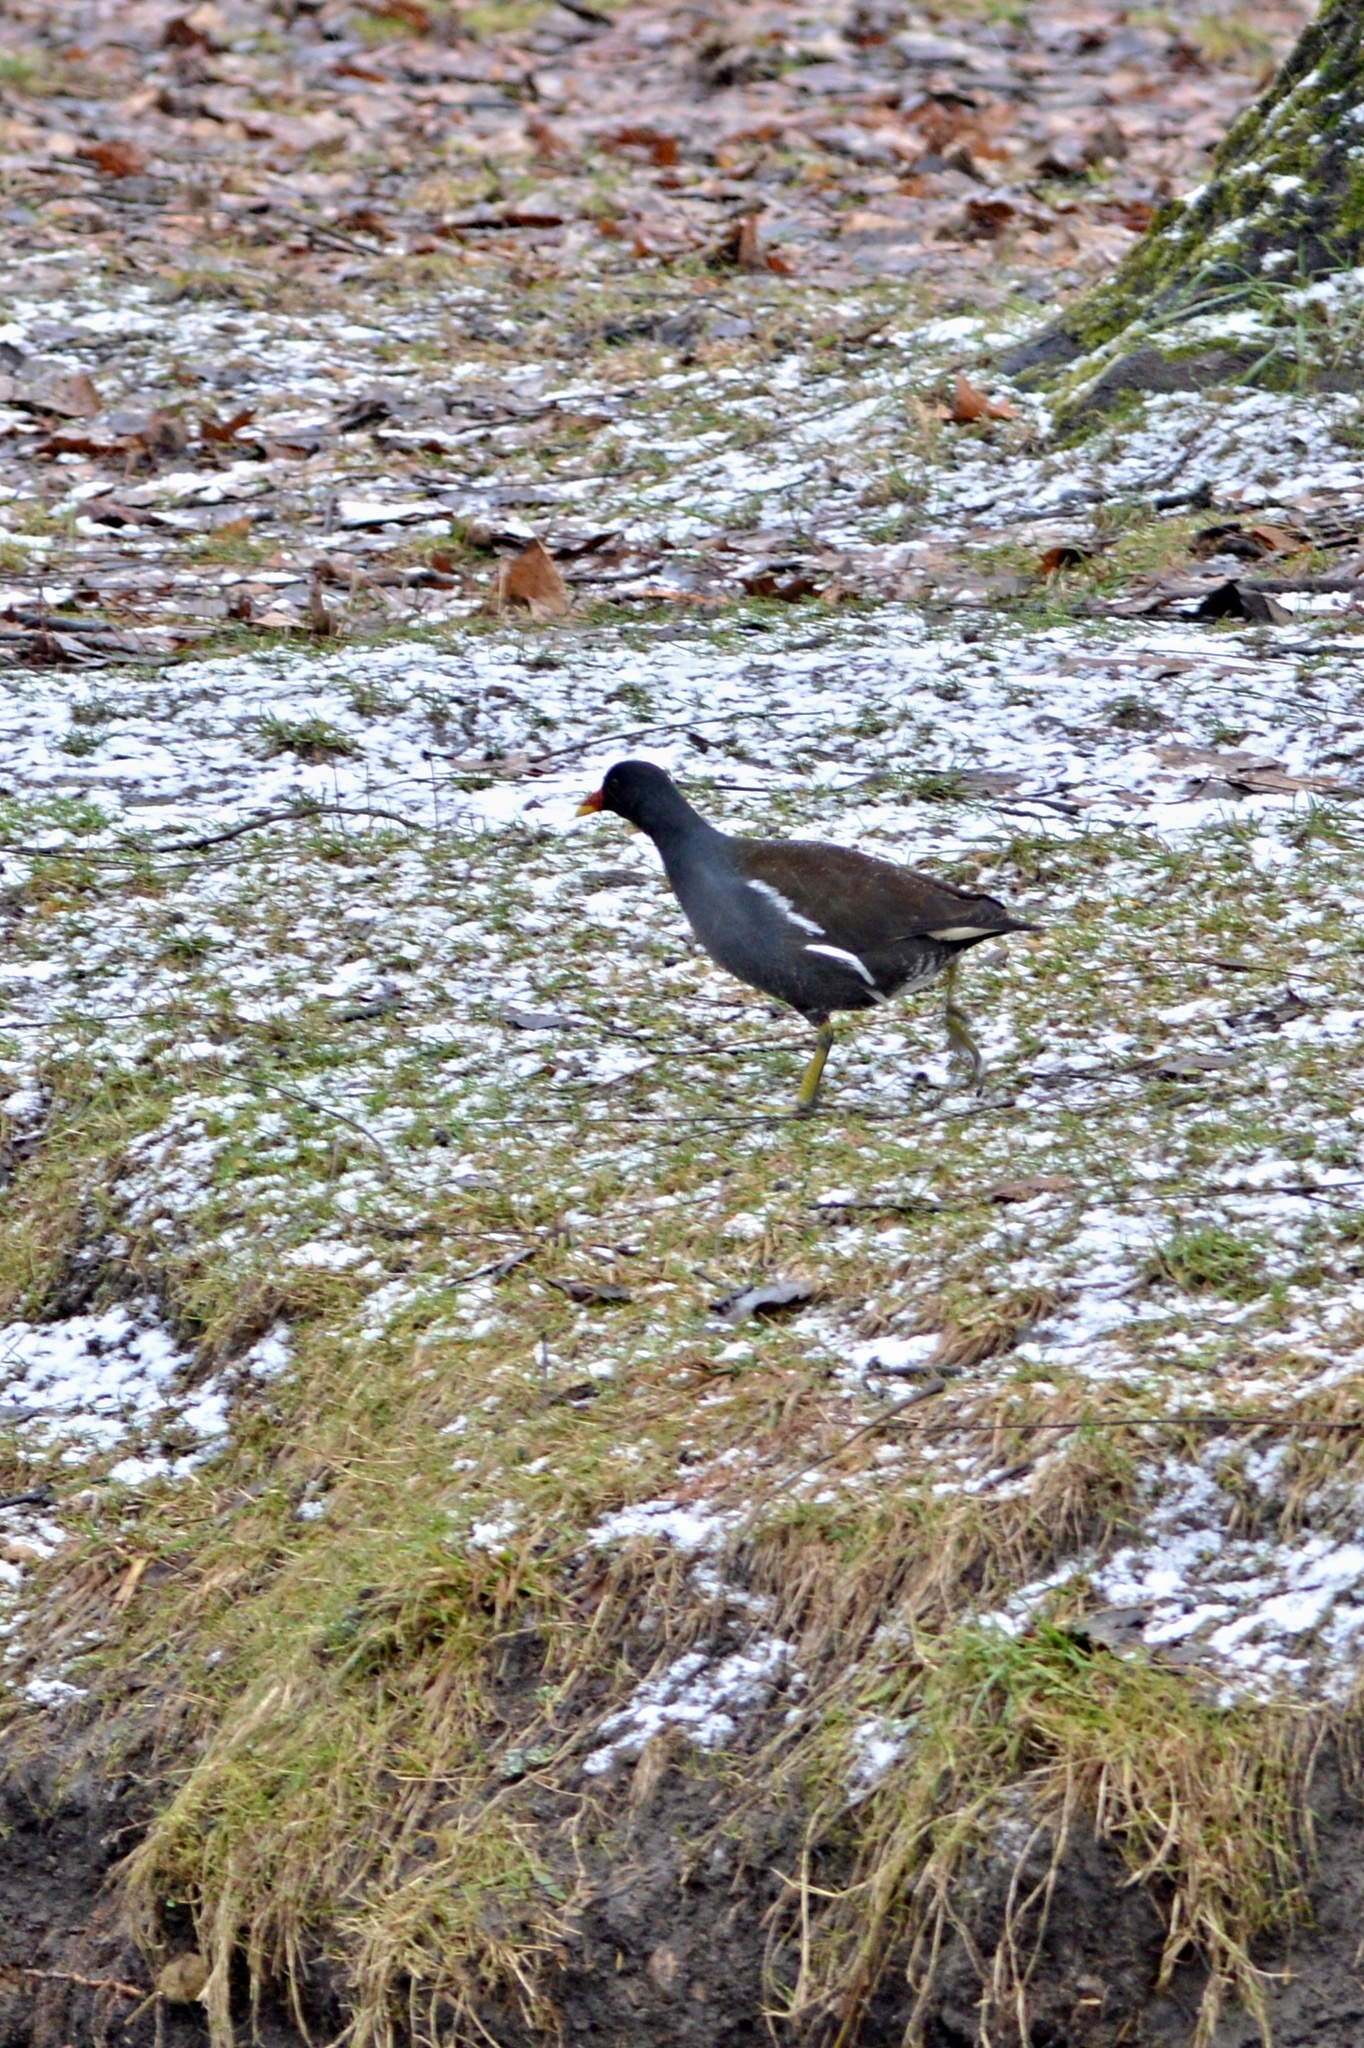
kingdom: Animalia
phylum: Chordata
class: Aves
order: Gruiformes
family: Rallidae
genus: Gallinula
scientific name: Gallinula chloropus
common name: Common moorhen
